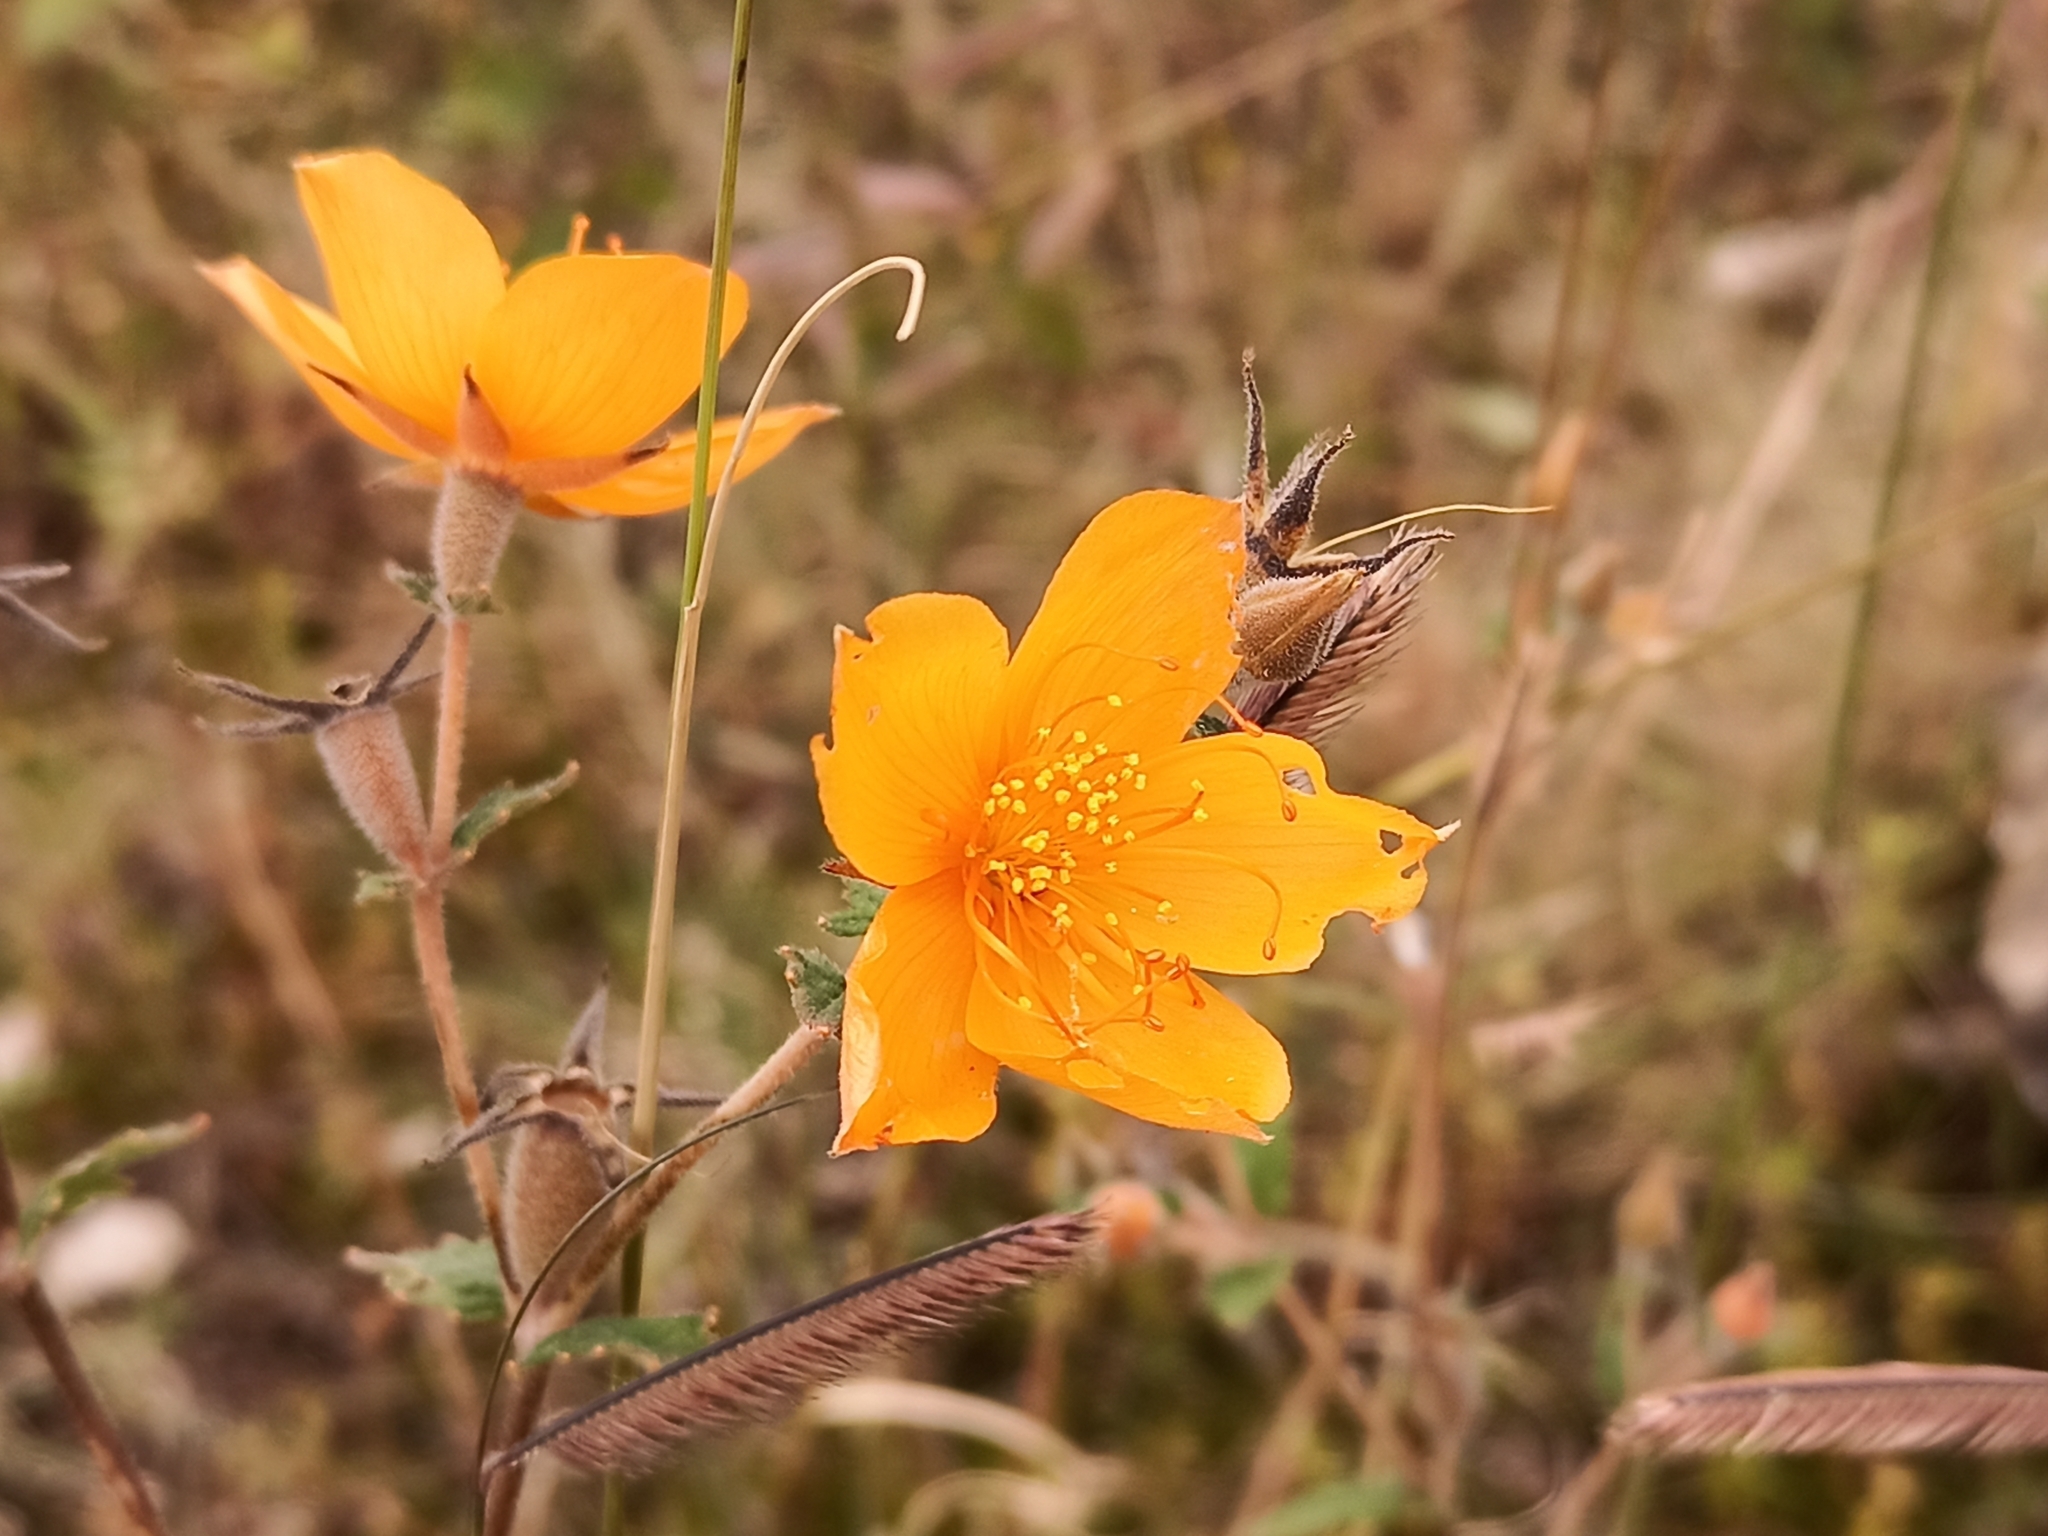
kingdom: Plantae
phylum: Tracheophyta
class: Magnoliopsida
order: Cornales
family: Loasaceae
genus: Mentzelia
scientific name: Mentzelia hispida
